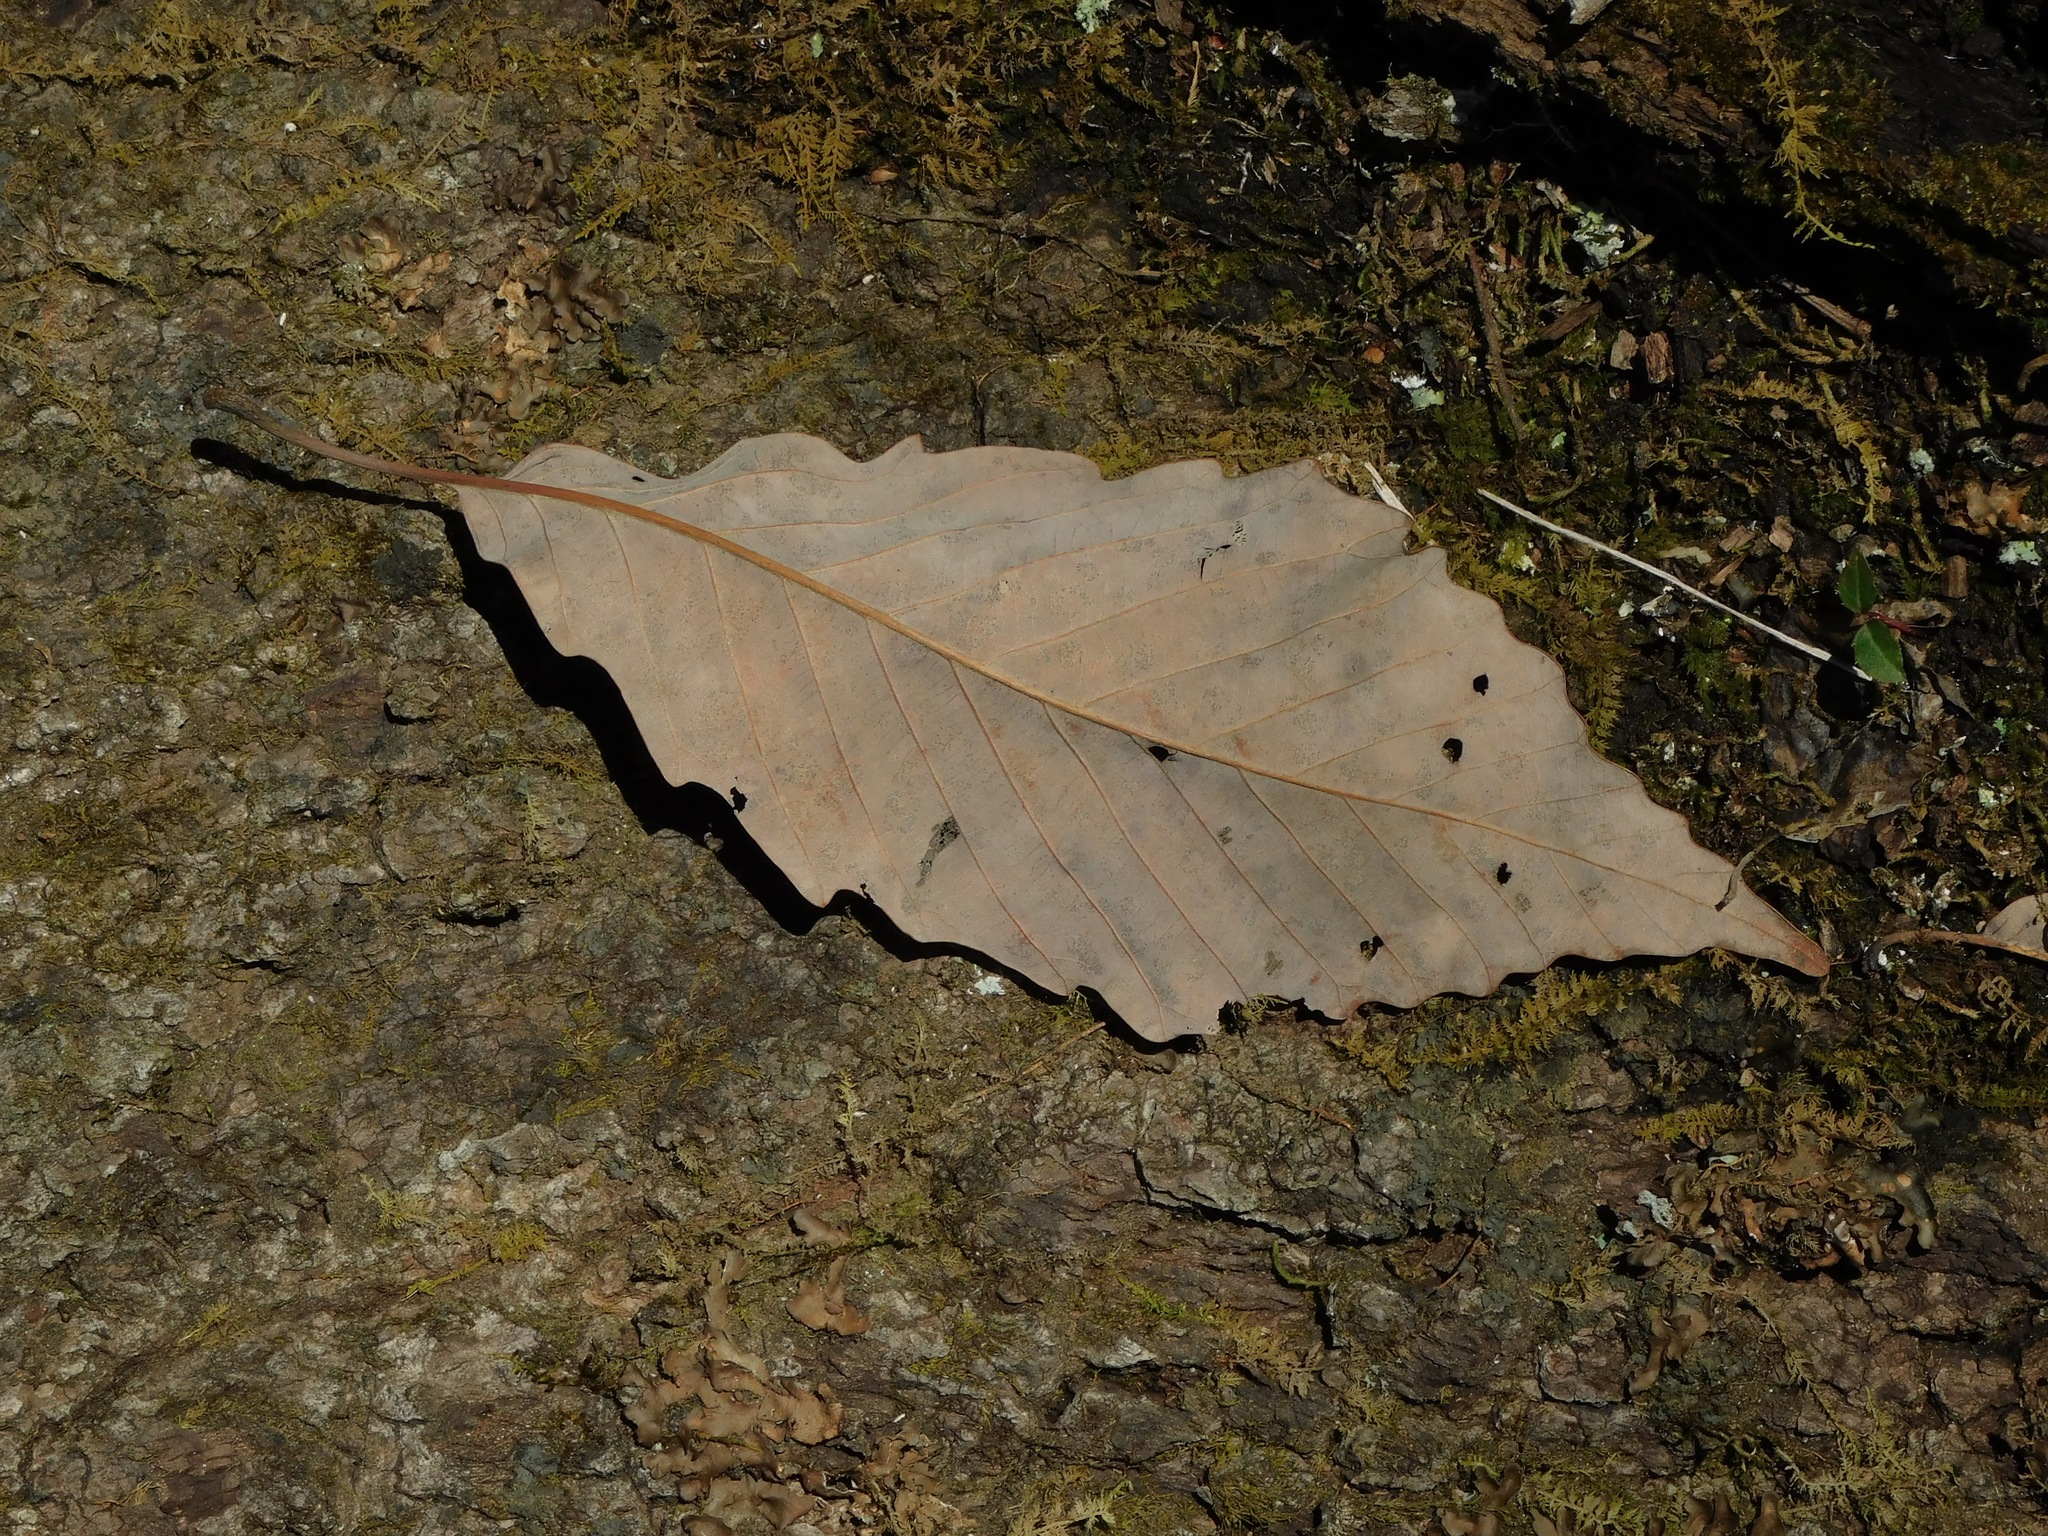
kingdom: Plantae
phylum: Tracheophyta
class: Magnoliopsida
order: Fagales
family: Fagaceae
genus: Quercus
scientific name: Quercus montana
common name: Chestnut oak
